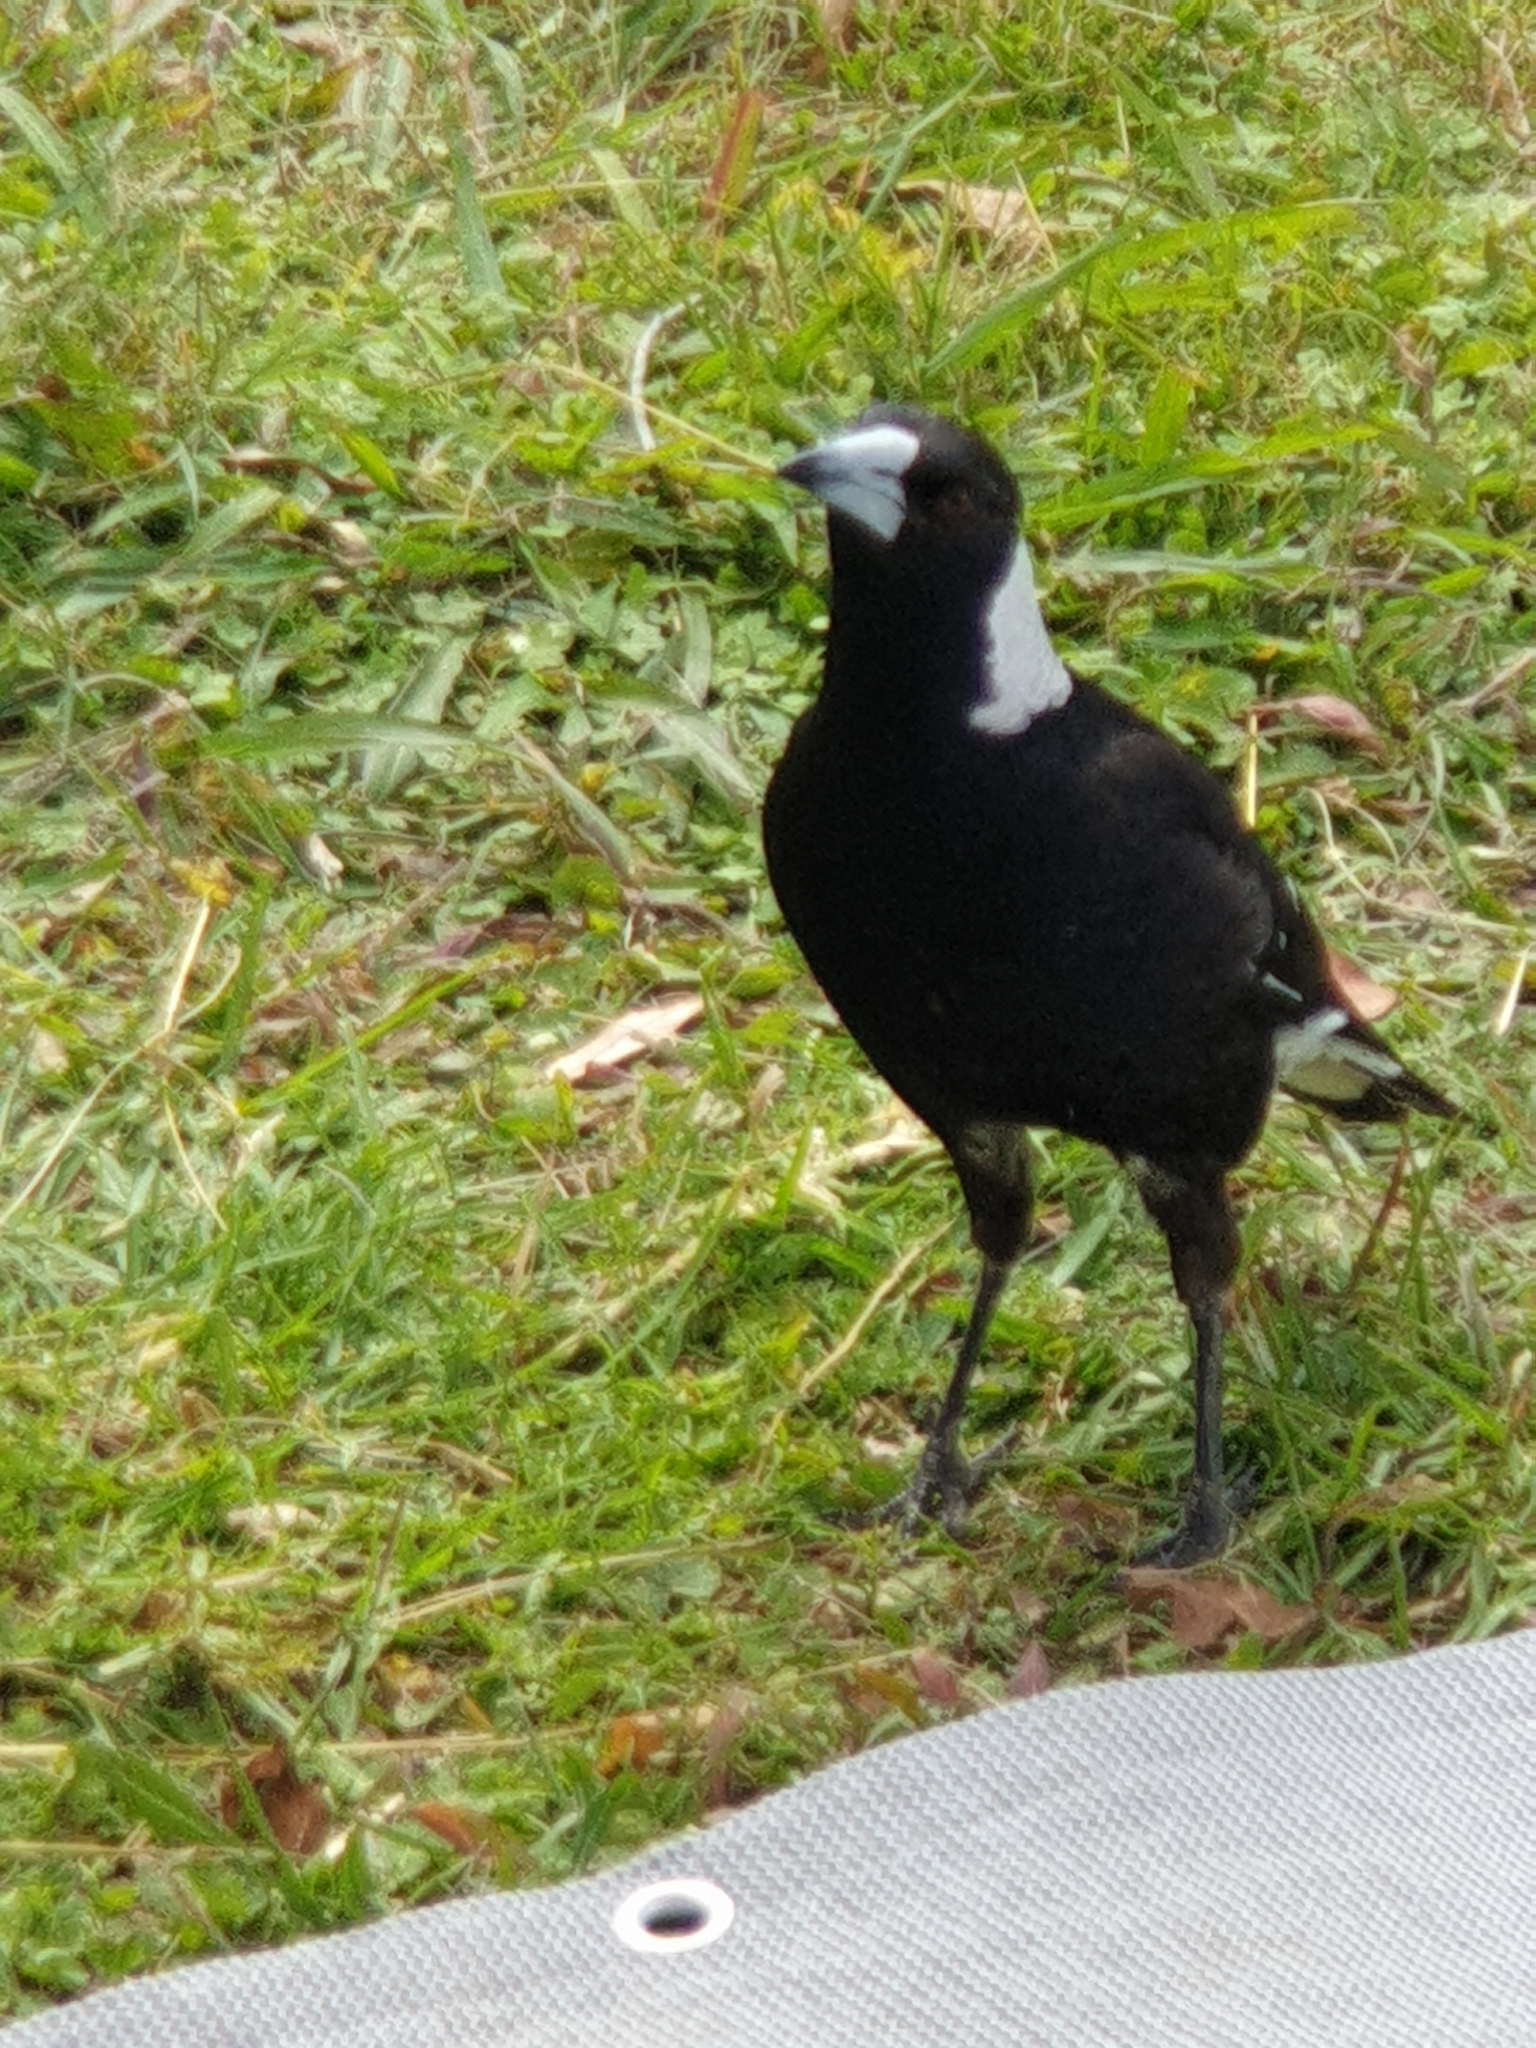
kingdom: Animalia
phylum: Chordata
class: Aves
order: Passeriformes
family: Cracticidae
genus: Gymnorhina
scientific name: Gymnorhina tibicen
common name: Australian magpie
